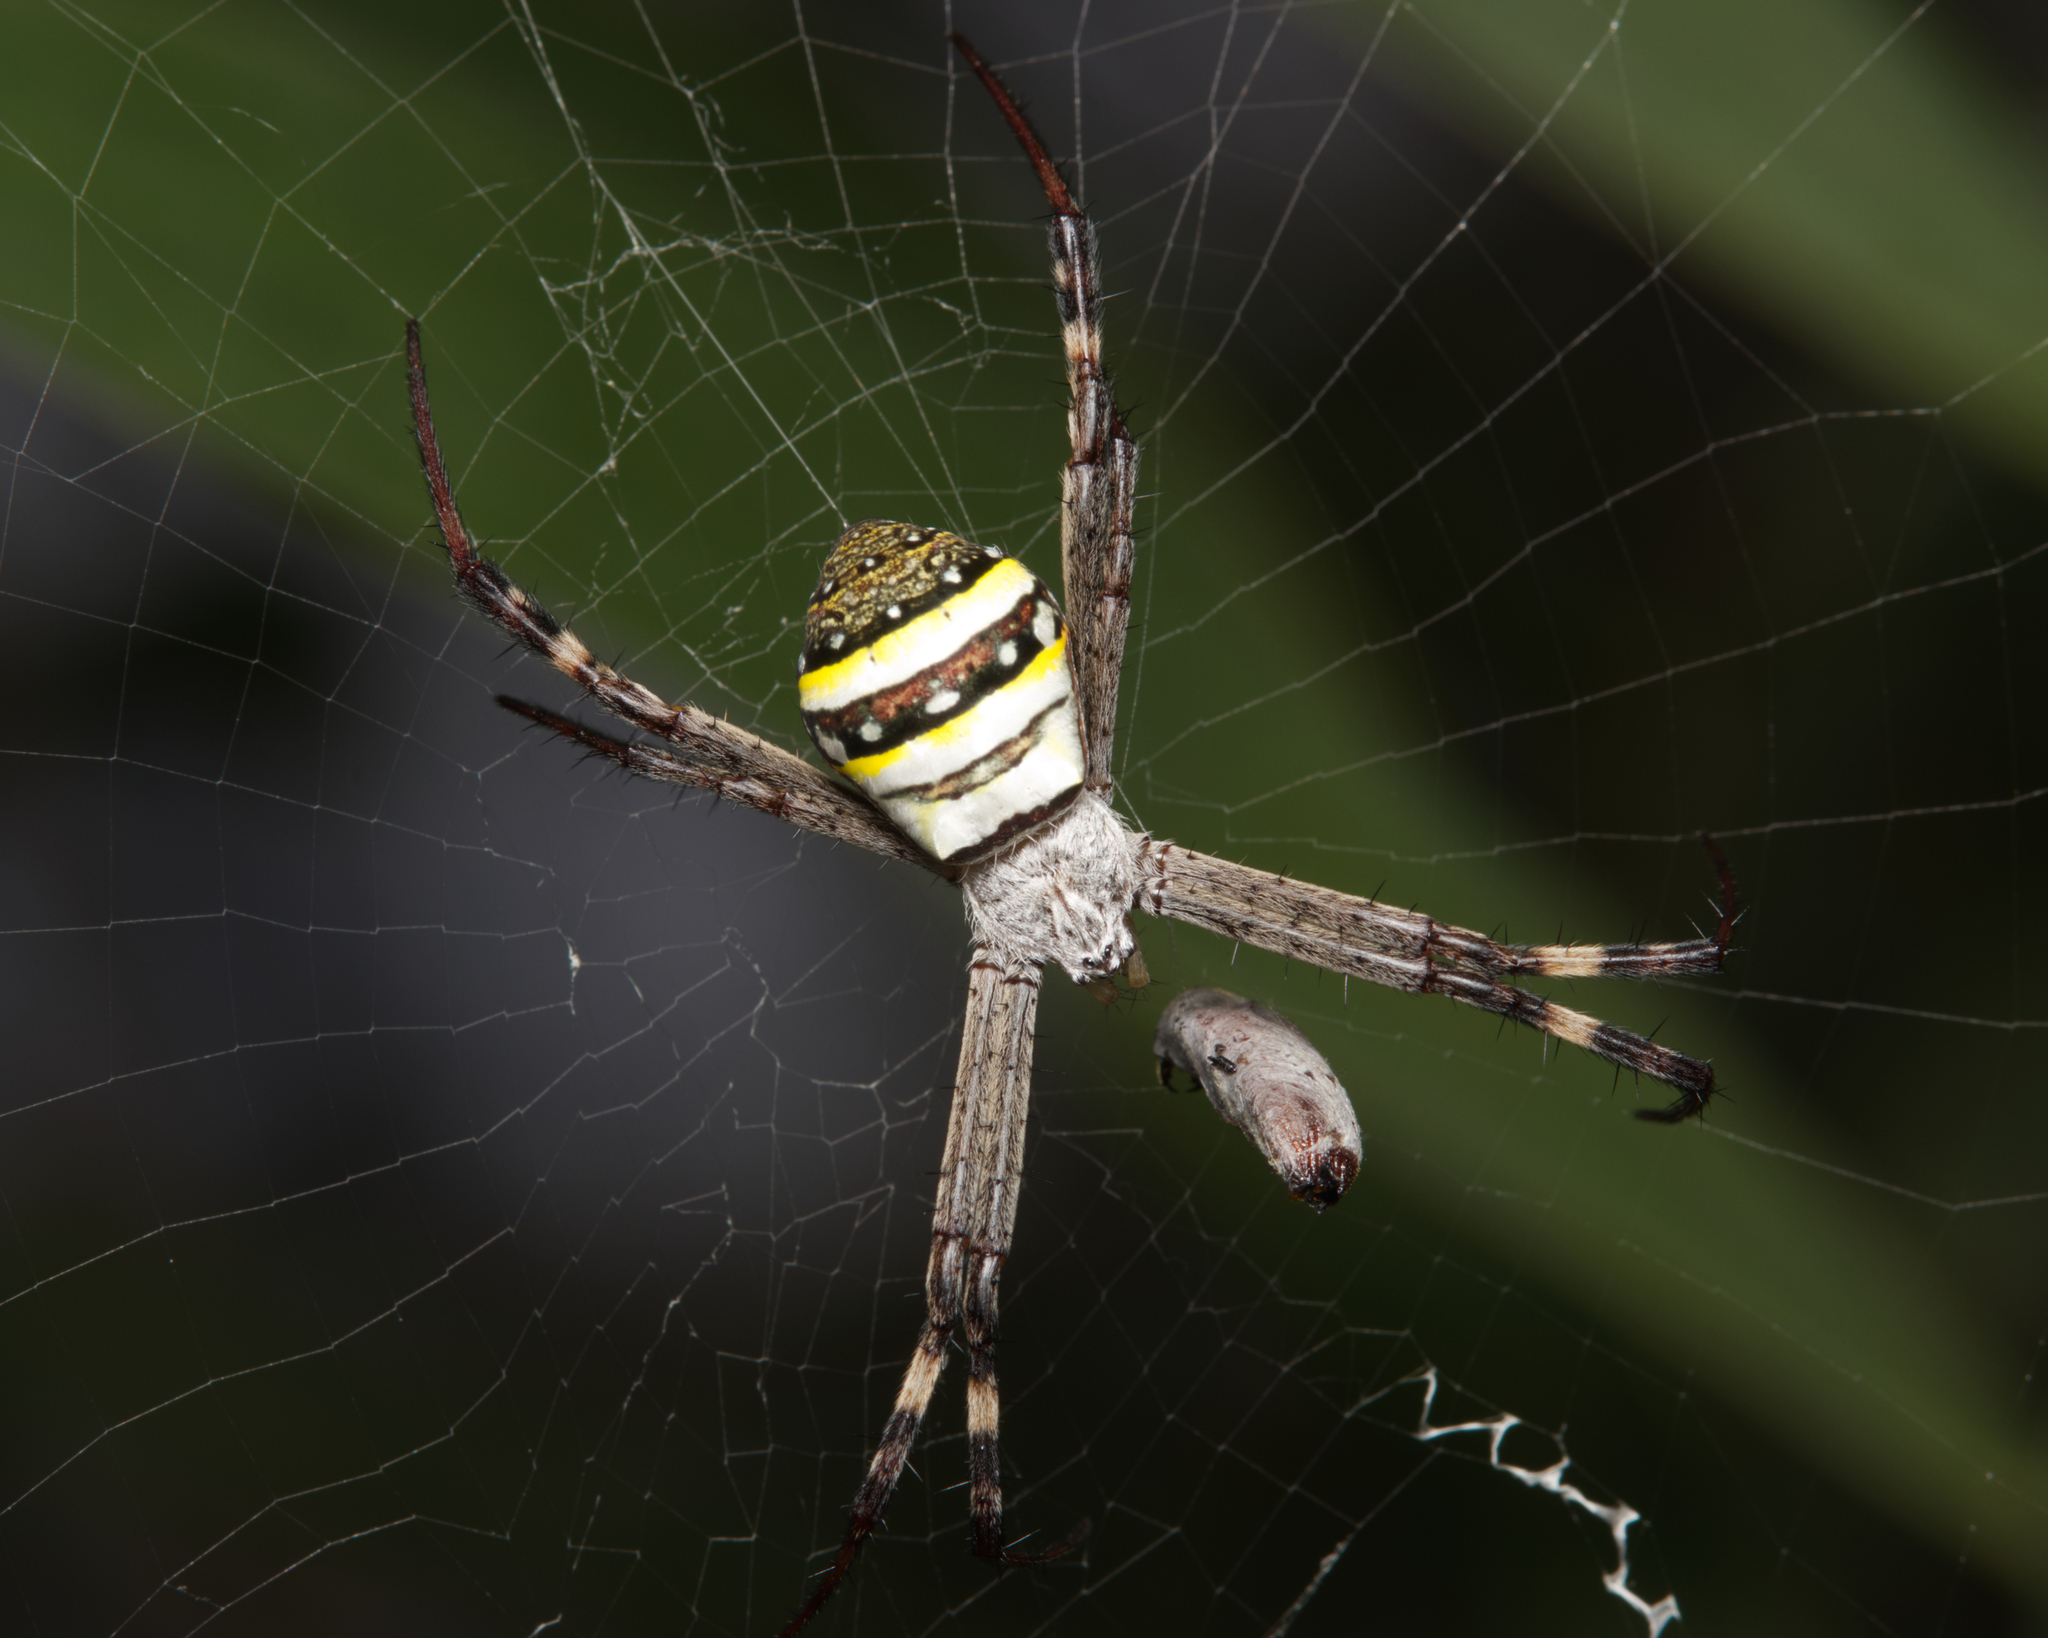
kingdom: Animalia
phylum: Arthropoda
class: Arachnida
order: Araneae
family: Araneidae
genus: Argiope
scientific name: Argiope keyserlingi
